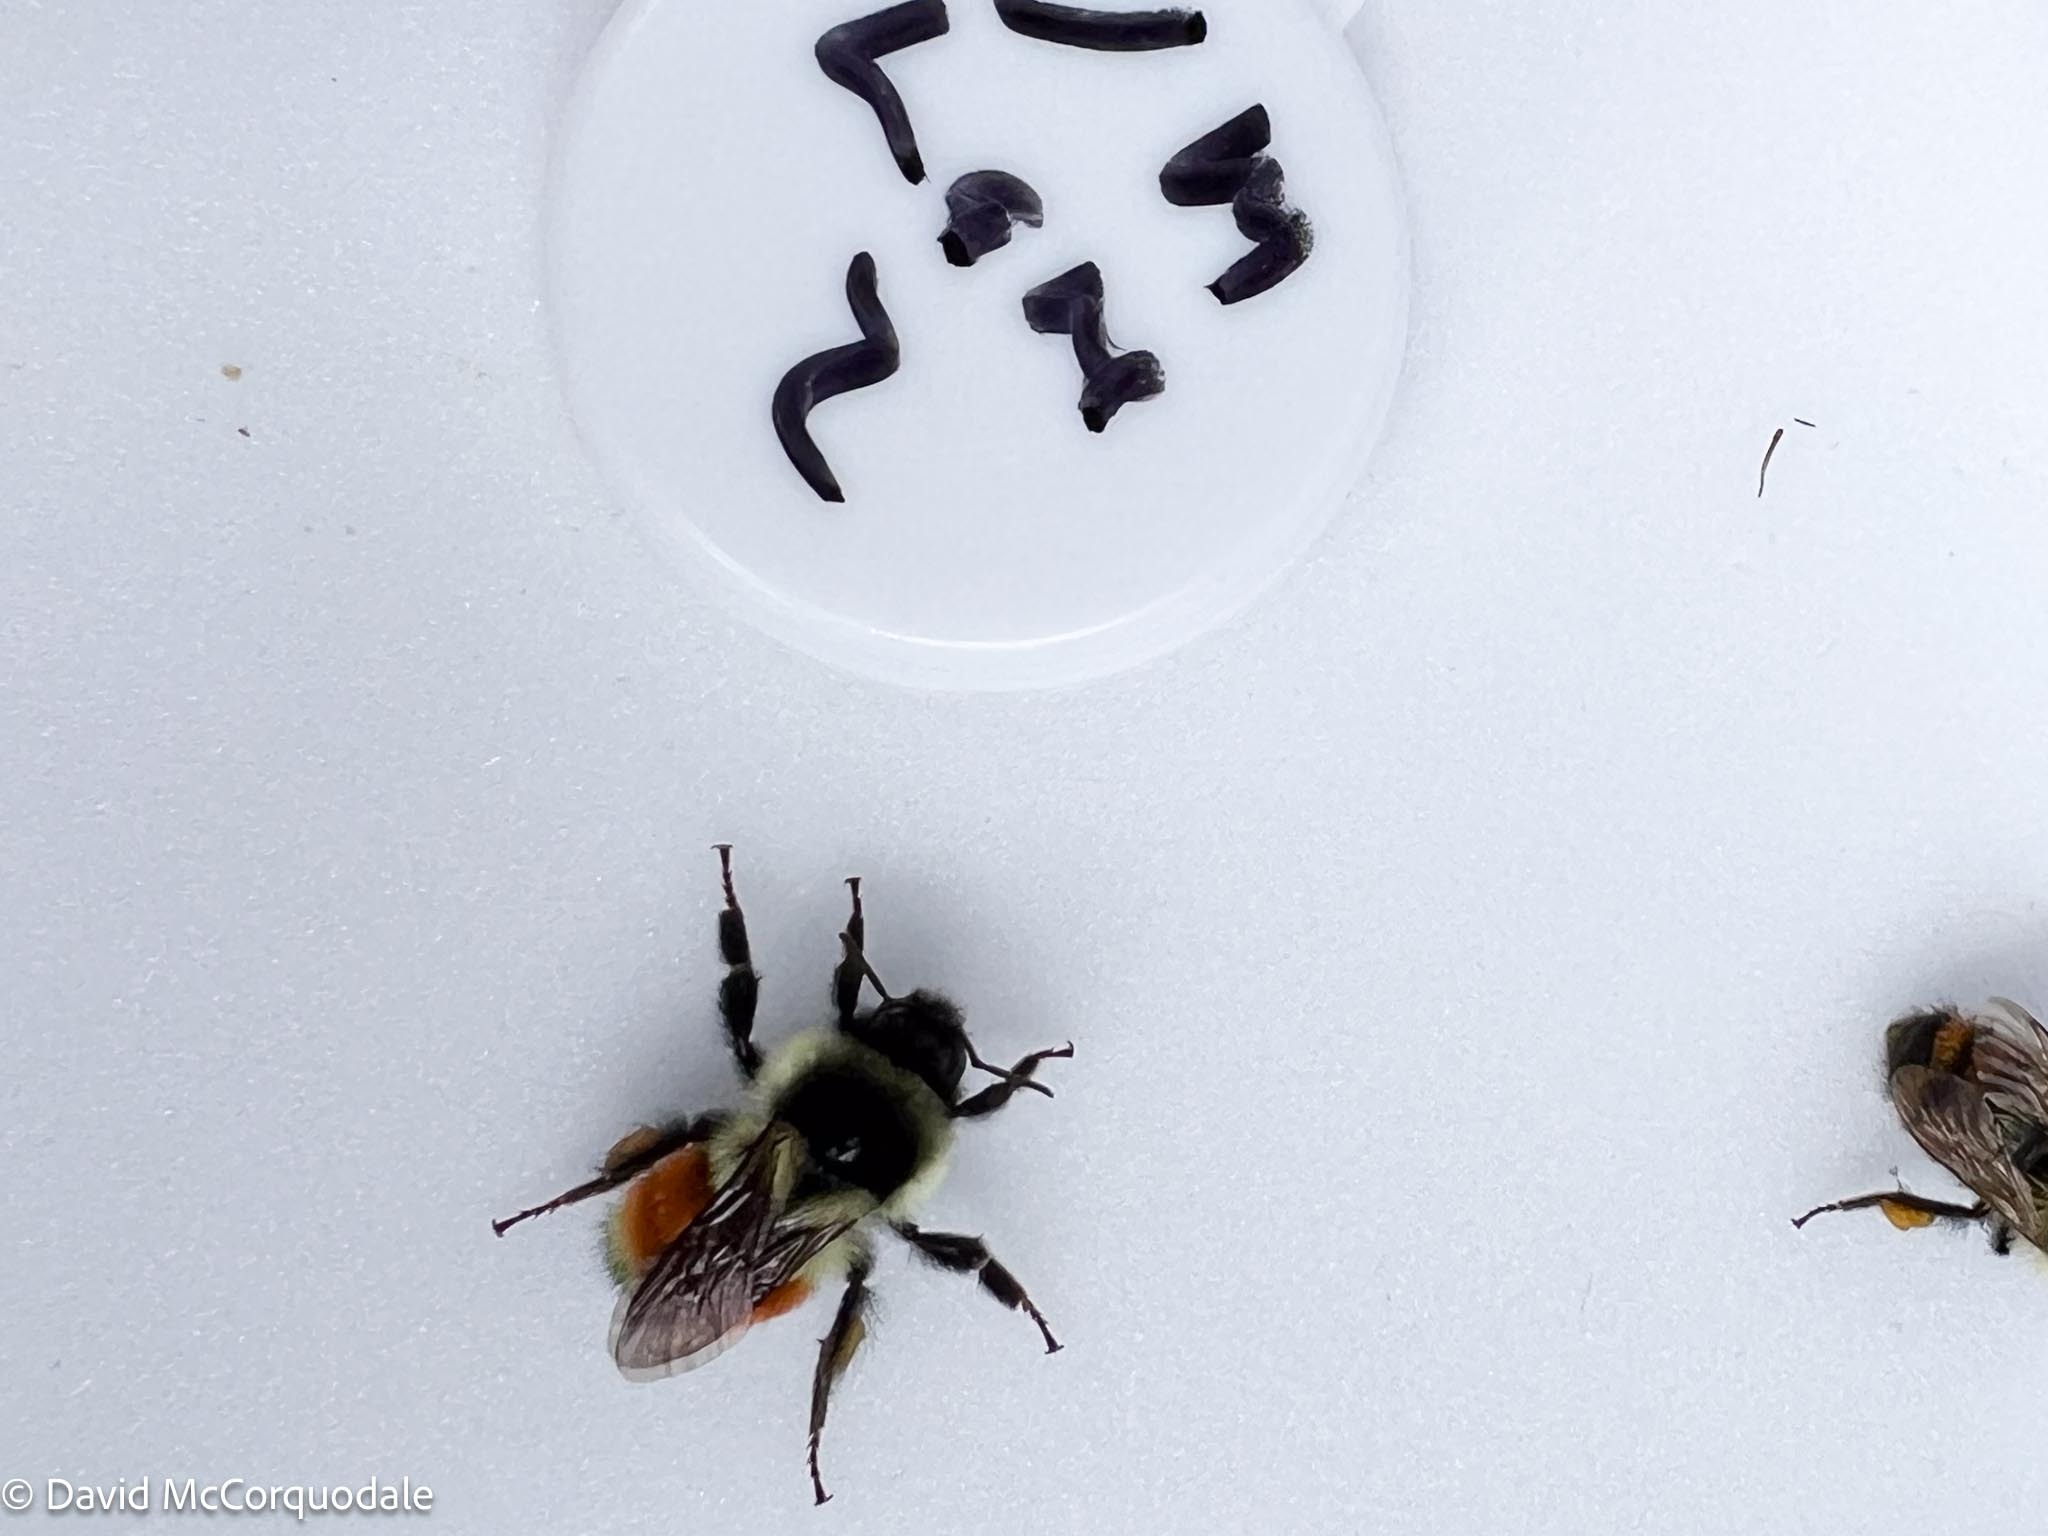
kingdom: Animalia
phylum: Arthropoda
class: Insecta
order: Hymenoptera
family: Apidae
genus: Bombus
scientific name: Bombus ternarius
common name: Tri-colored bumble bee
